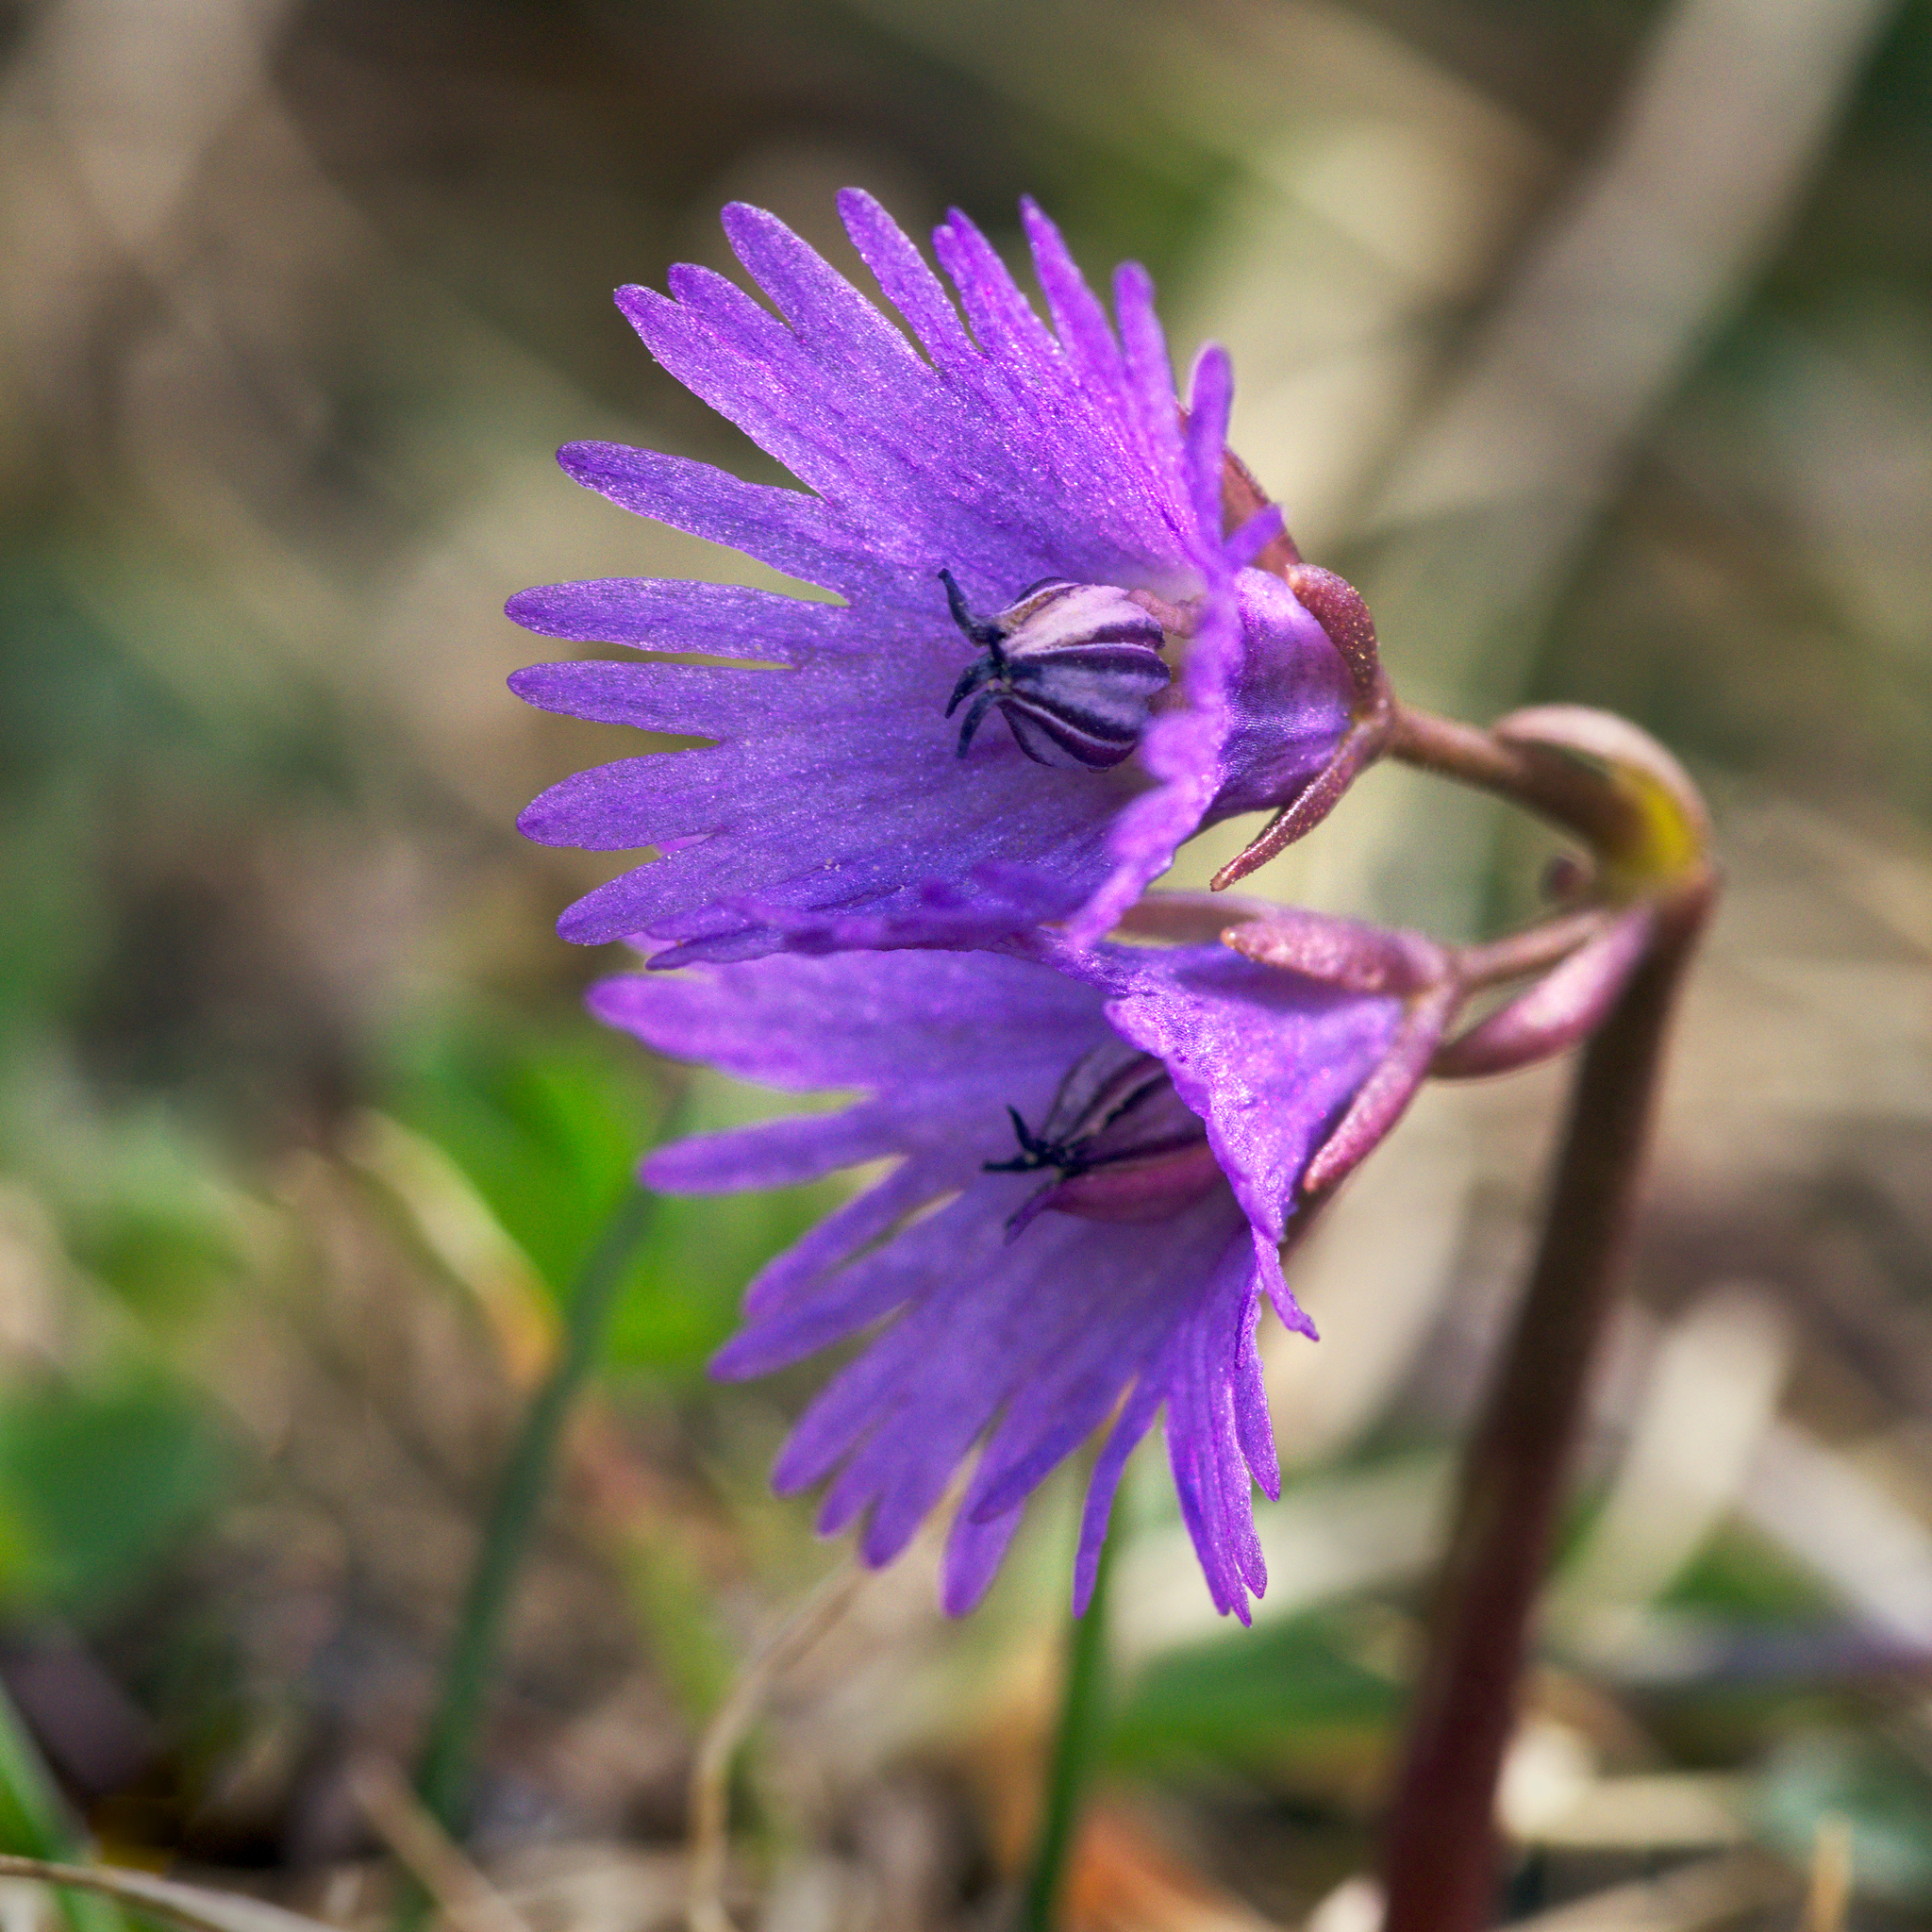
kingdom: Plantae
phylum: Tracheophyta
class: Magnoliopsida
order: Ericales
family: Primulaceae
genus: Soldanella
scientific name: Soldanella alpina
